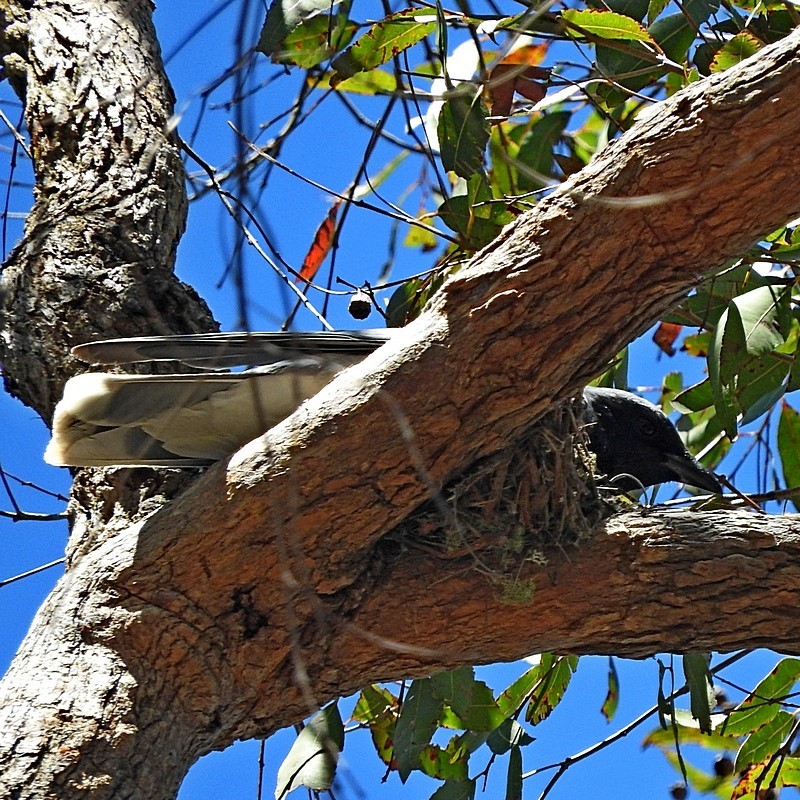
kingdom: Animalia
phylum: Chordata
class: Aves
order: Passeriformes
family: Campephagidae
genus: Coracina
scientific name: Coracina novaehollandiae
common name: Black-faced cuckooshrike
